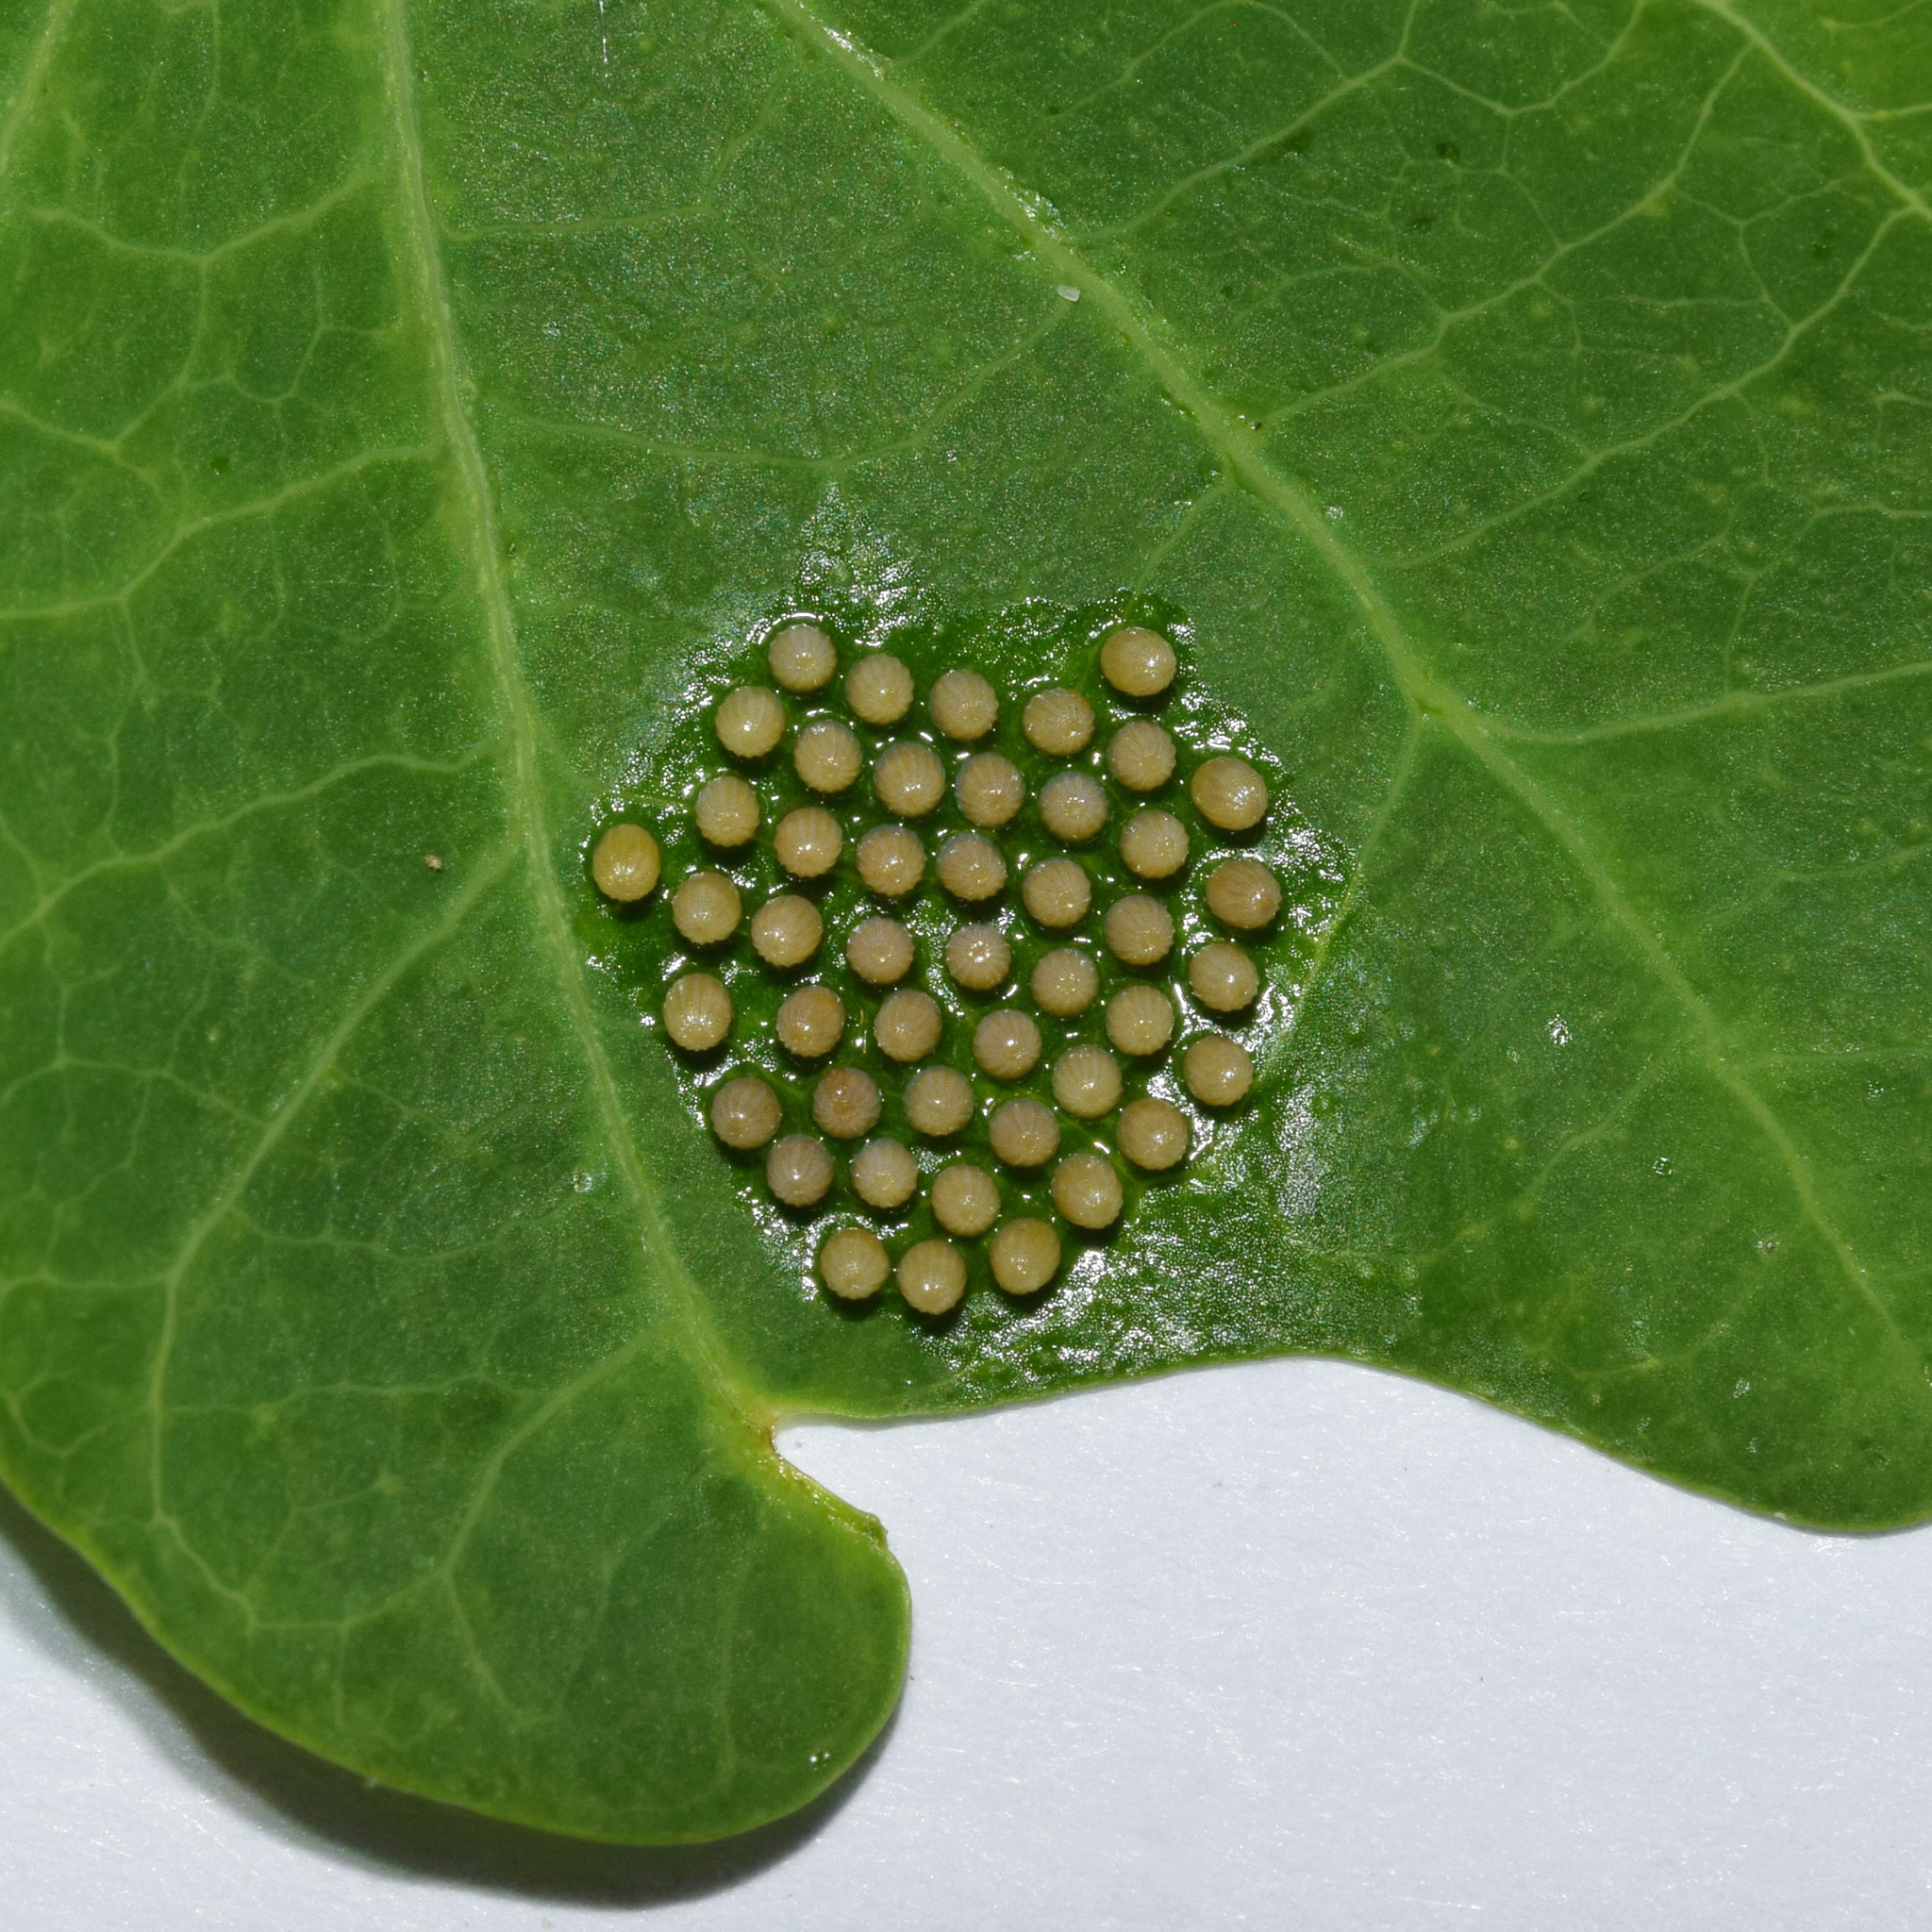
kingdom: Animalia
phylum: Arthropoda
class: Insecta
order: Lepidoptera
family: Nymphalidae
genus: Stephenia
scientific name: Stephenia
